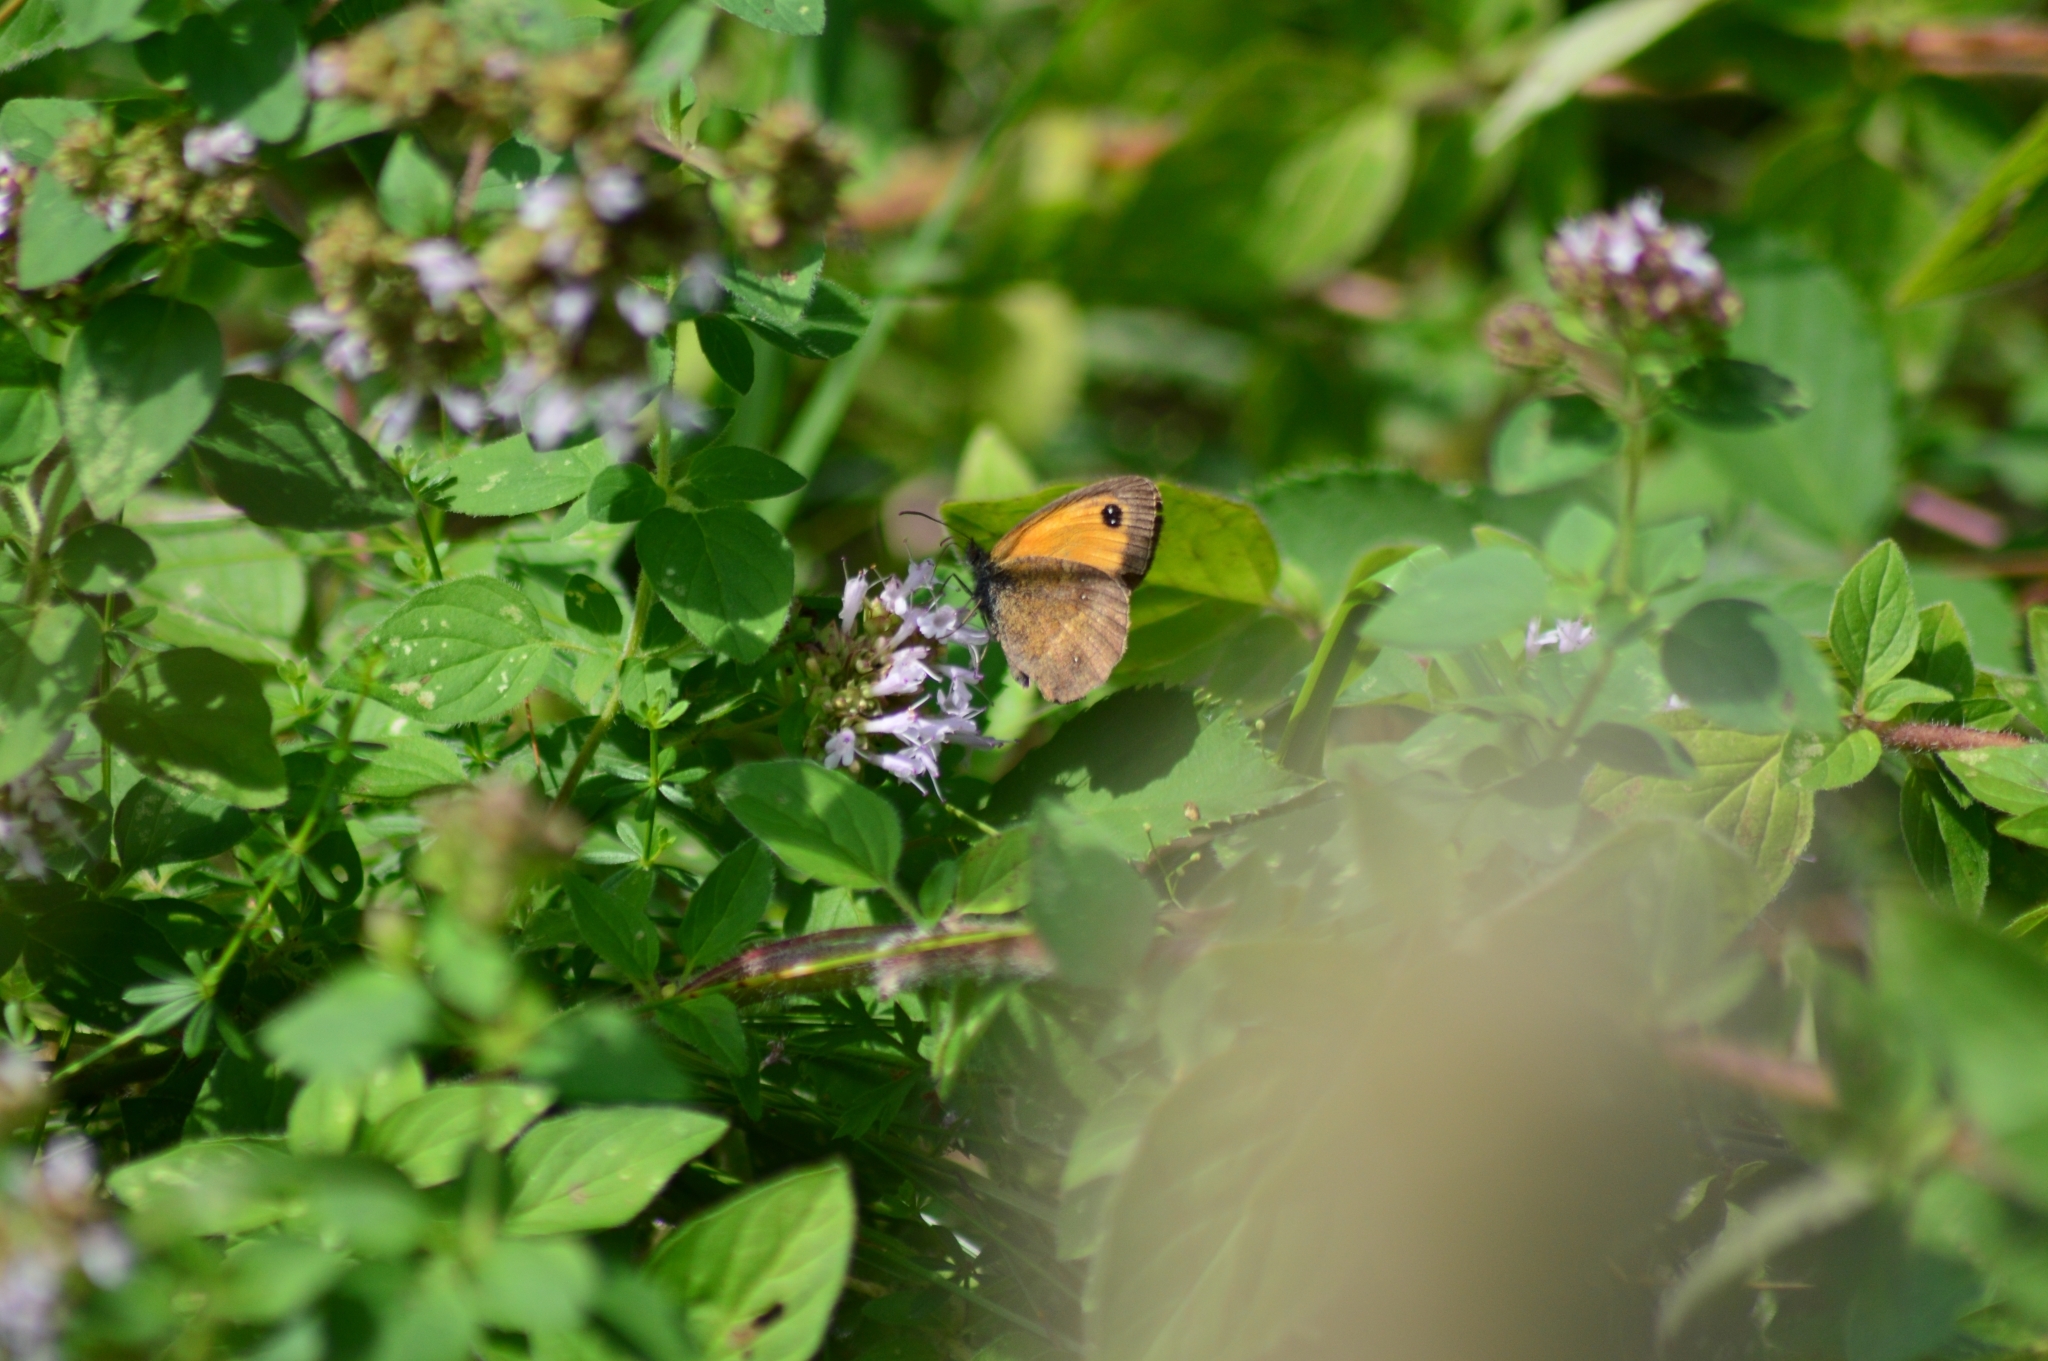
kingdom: Animalia
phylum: Arthropoda
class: Insecta
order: Lepidoptera
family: Nymphalidae
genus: Pyronia
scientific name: Pyronia tithonus
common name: Gatekeeper
